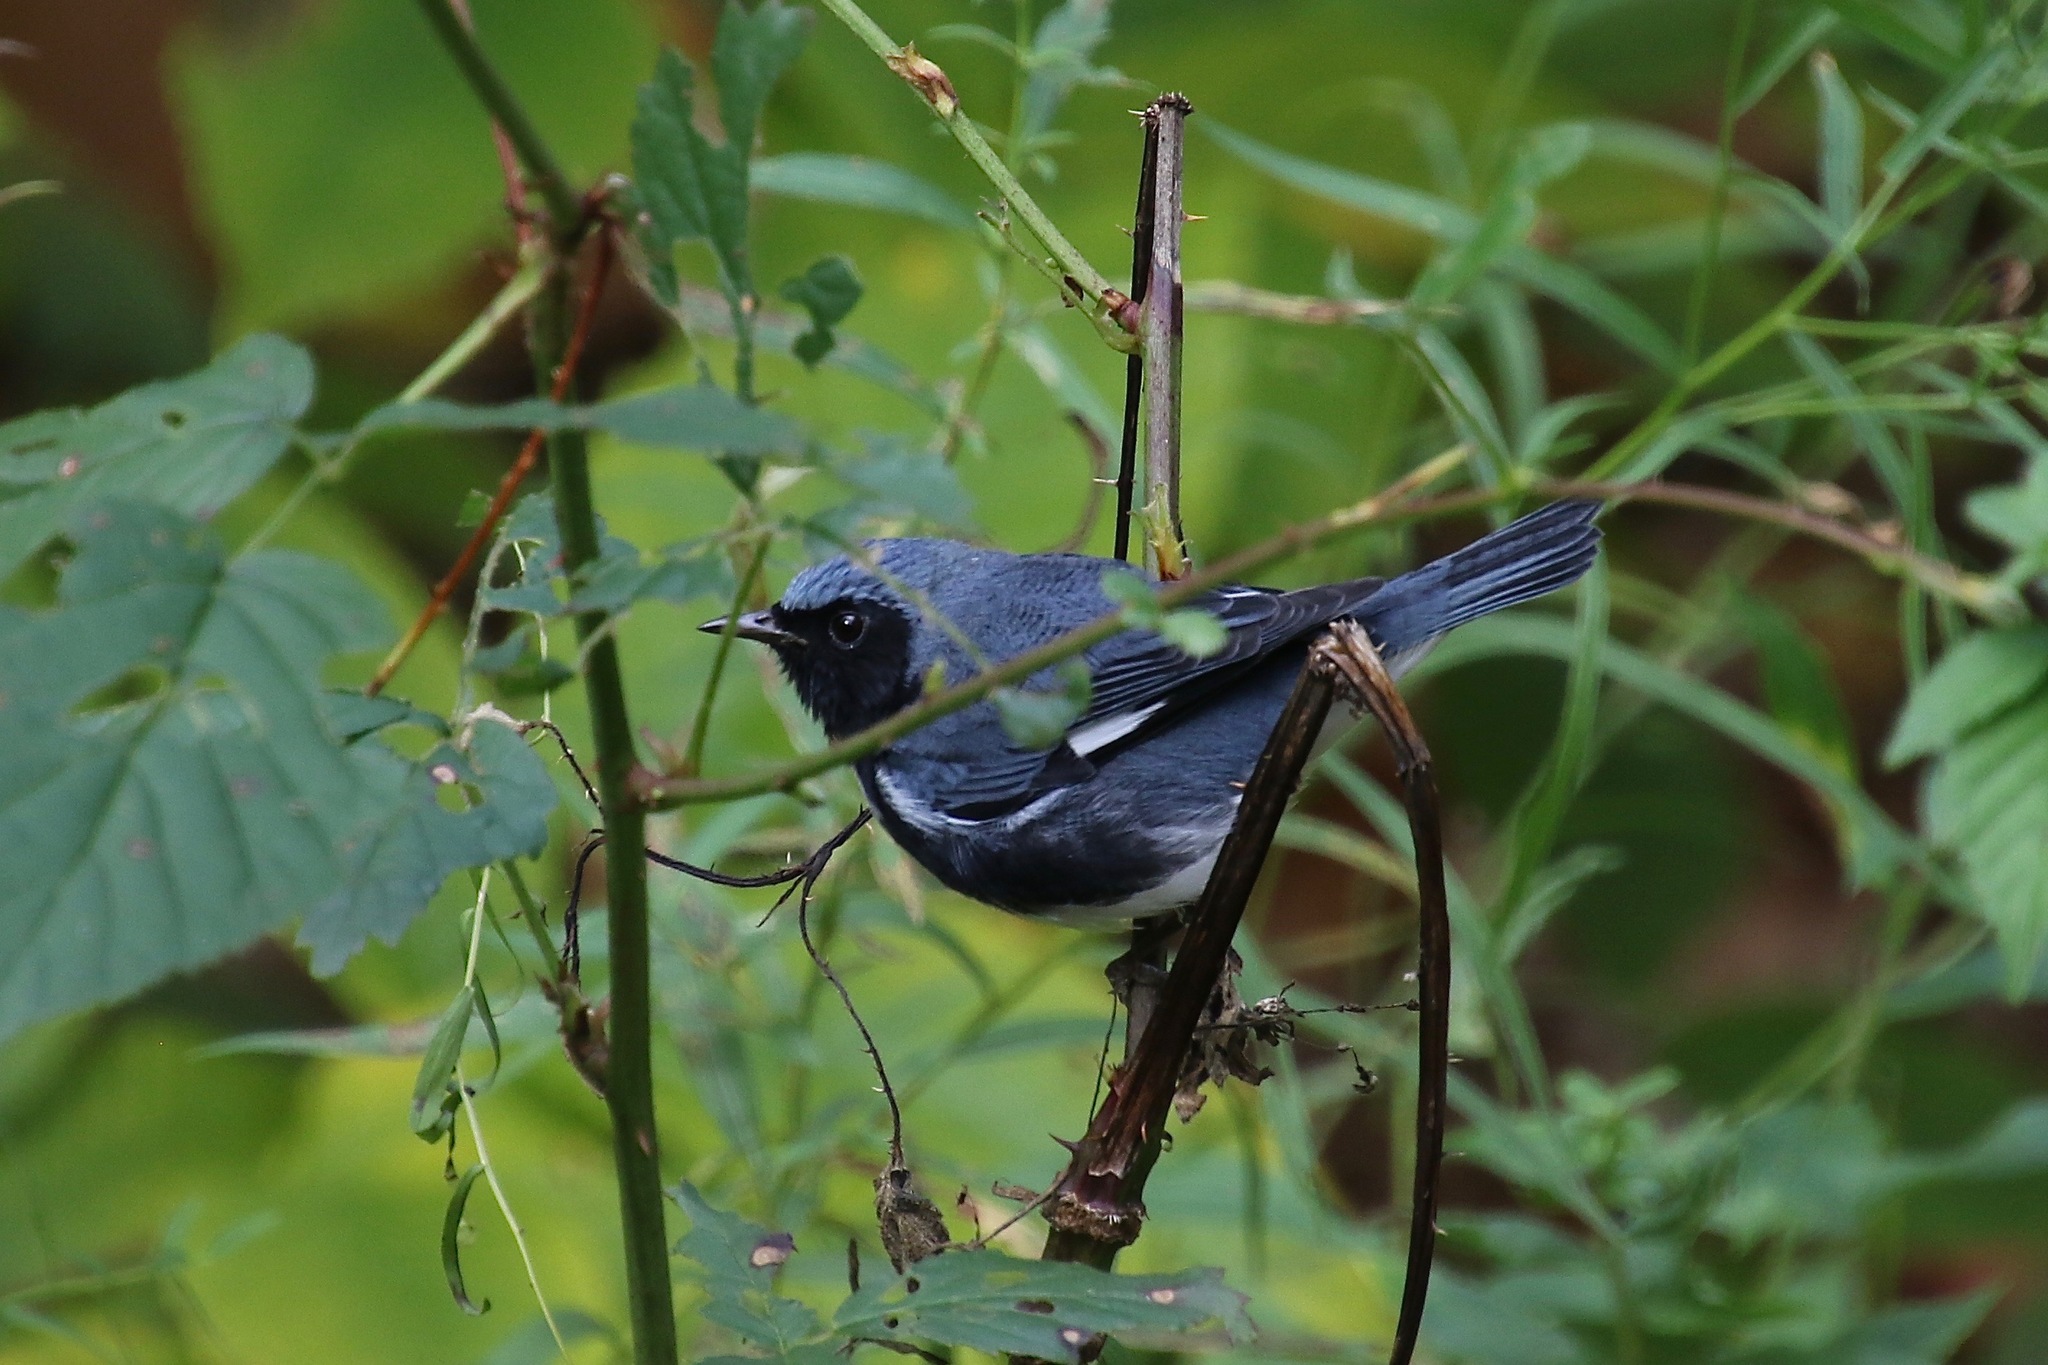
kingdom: Animalia
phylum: Chordata
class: Aves
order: Passeriformes
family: Parulidae
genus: Setophaga
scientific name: Setophaga caerulescens
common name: Black-throated blue warbler
